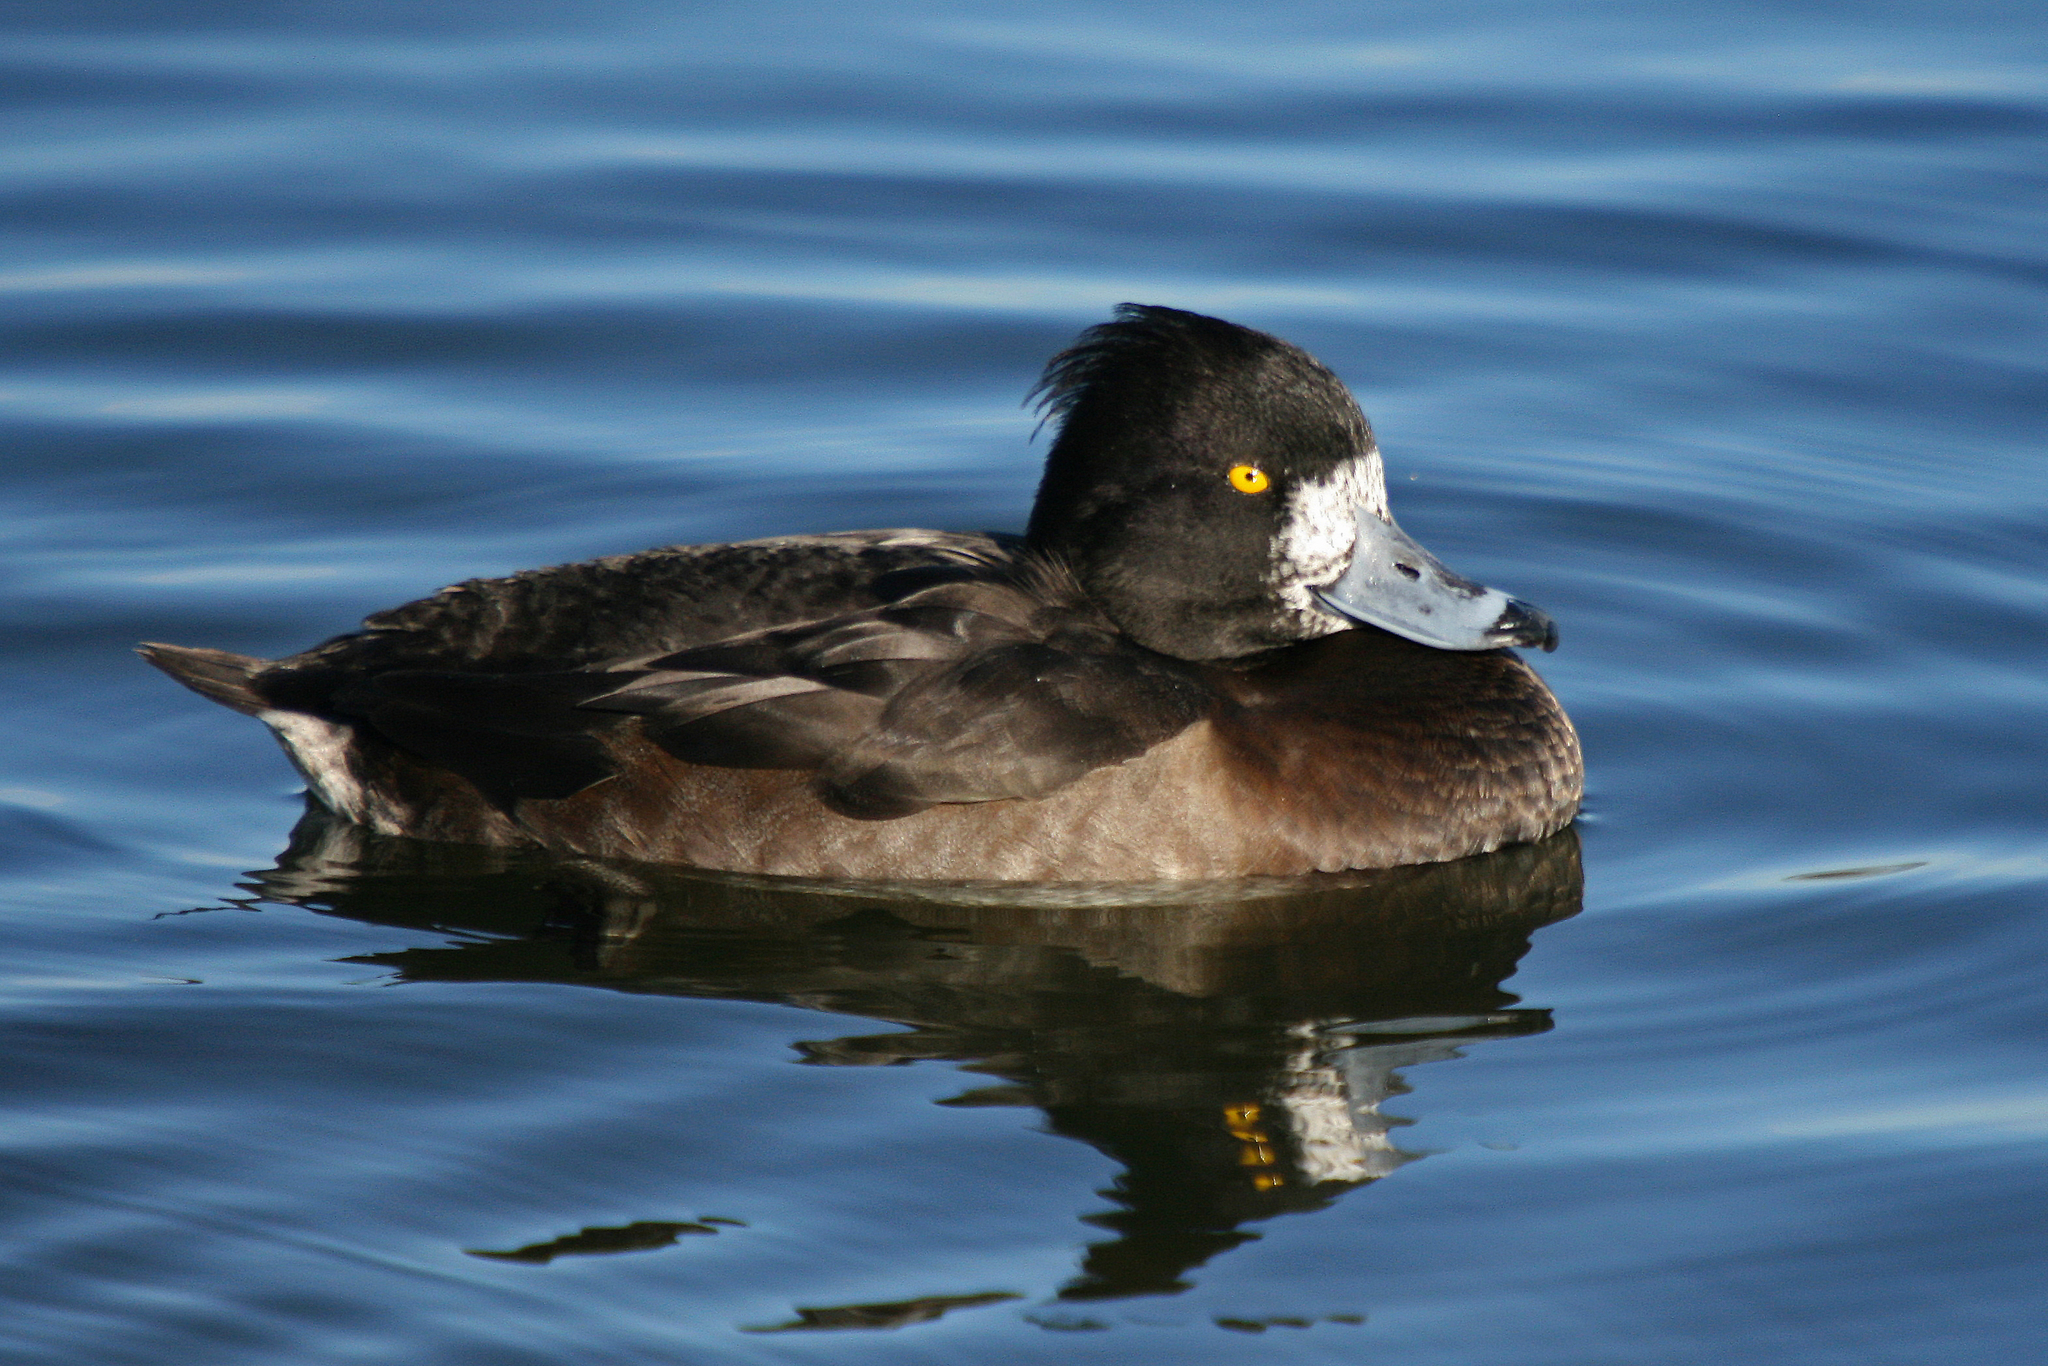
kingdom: Animalia
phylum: Chordata
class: Aves
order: Anseriformes
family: Anatidae
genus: Aythya
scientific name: Aythya fuligula
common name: Tufted duck
